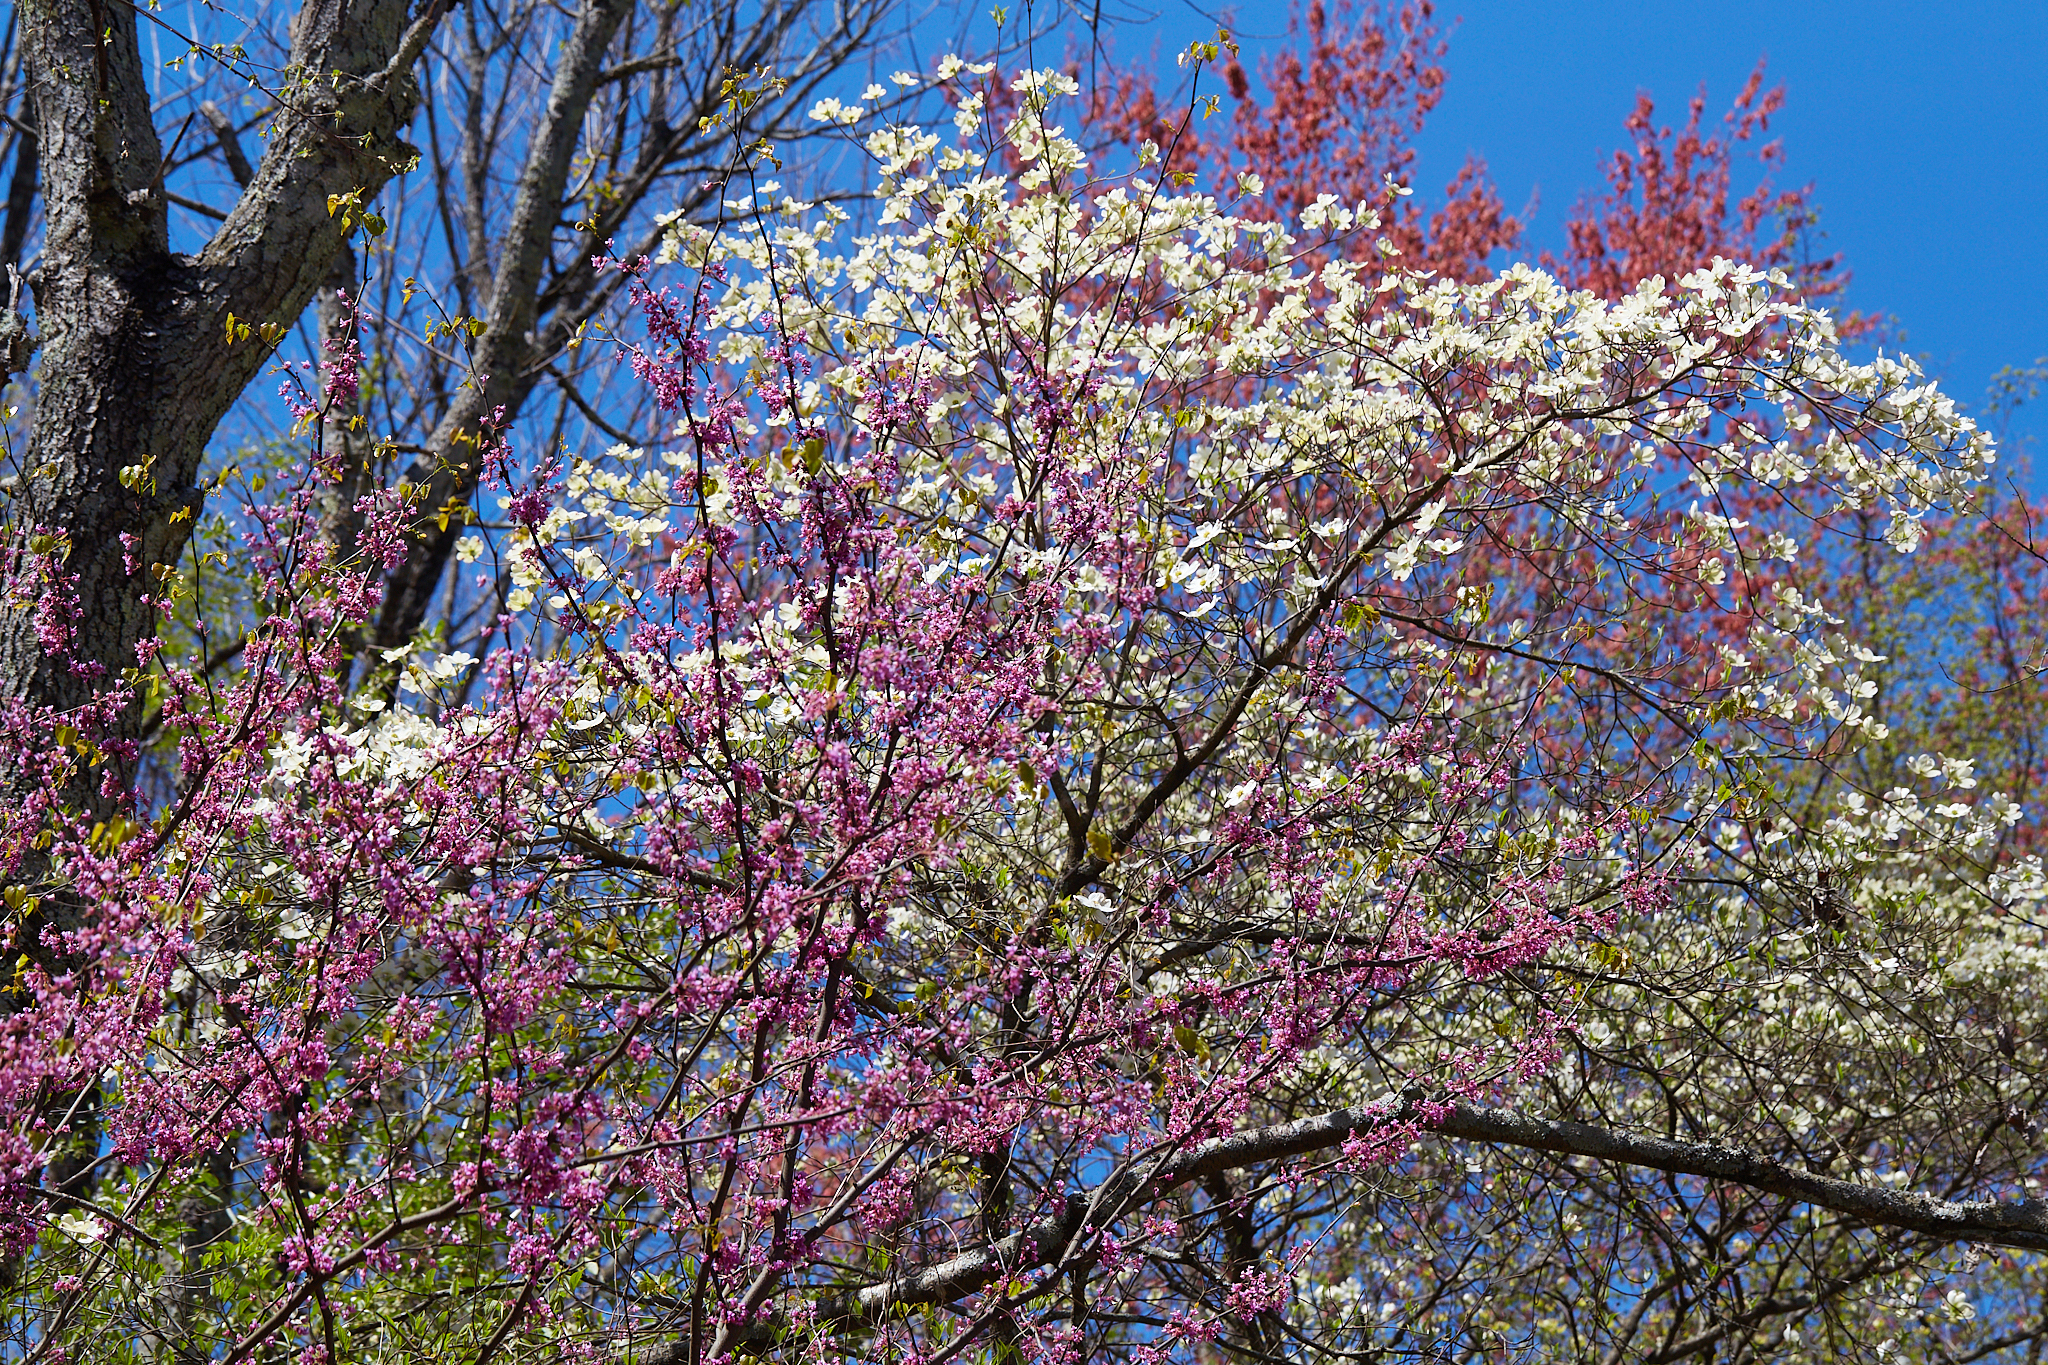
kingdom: Plantae
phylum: Tracheophyta
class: Magnoliopsida
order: Fabales
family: Fabaceae
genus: Cercis
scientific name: Cercis canadensis
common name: Eastern redbud
